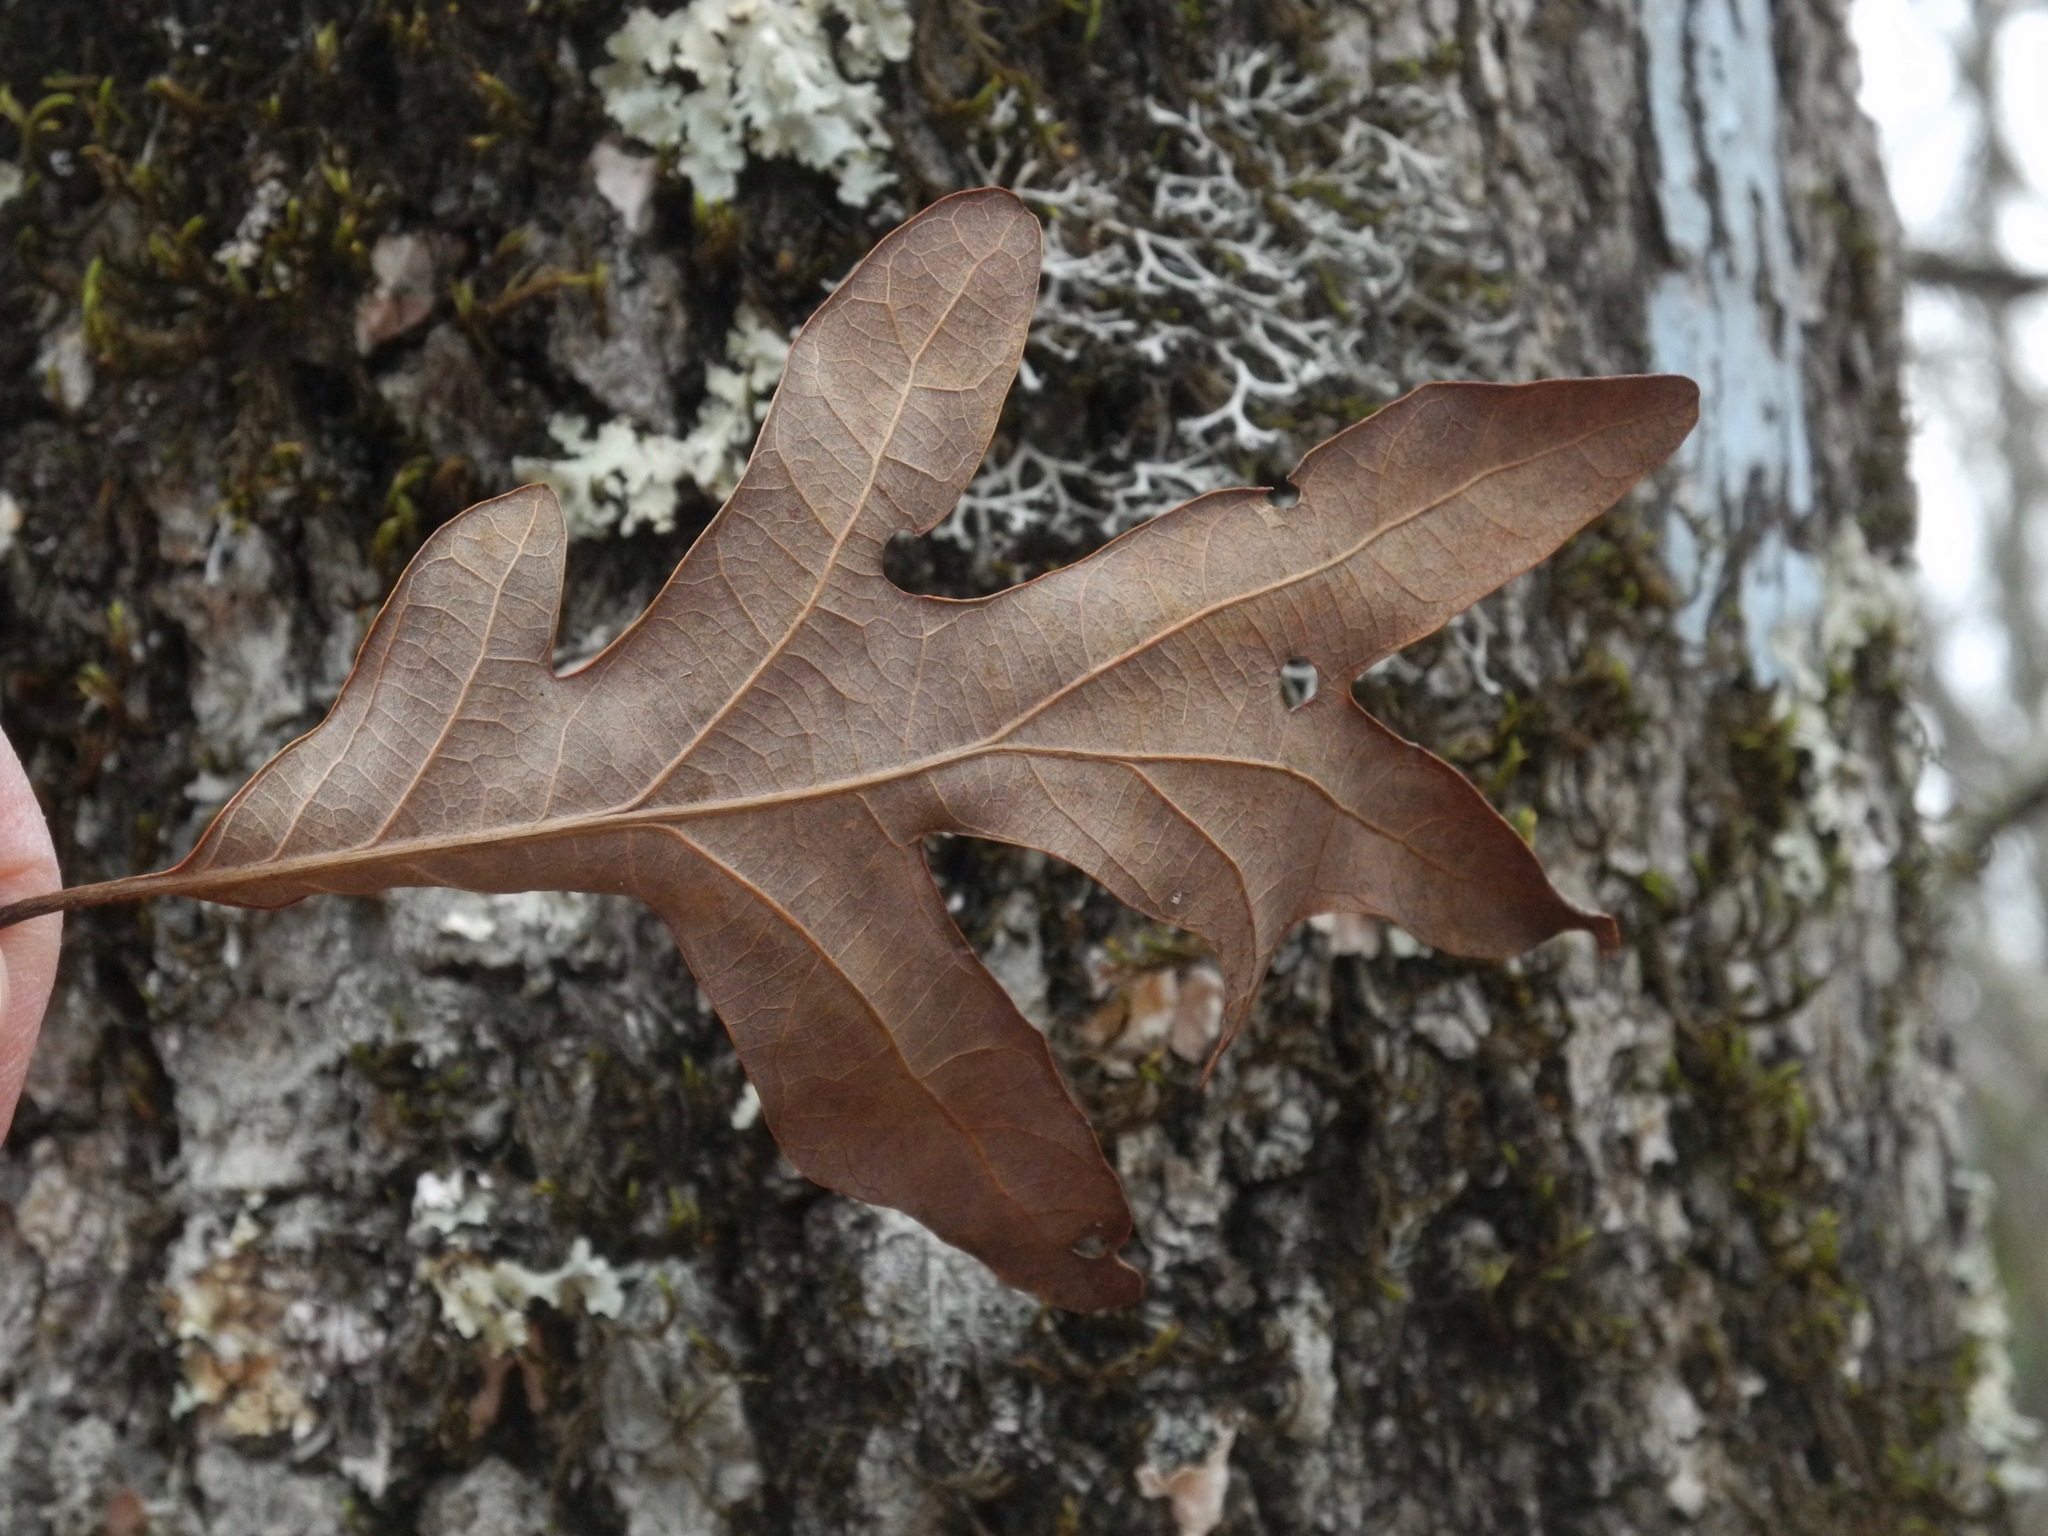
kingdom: Plantae
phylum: Tracheophyta
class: Magnoliopsida
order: Fagales
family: Fagaceae
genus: Quercus
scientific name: Quercus alba
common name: White oak
